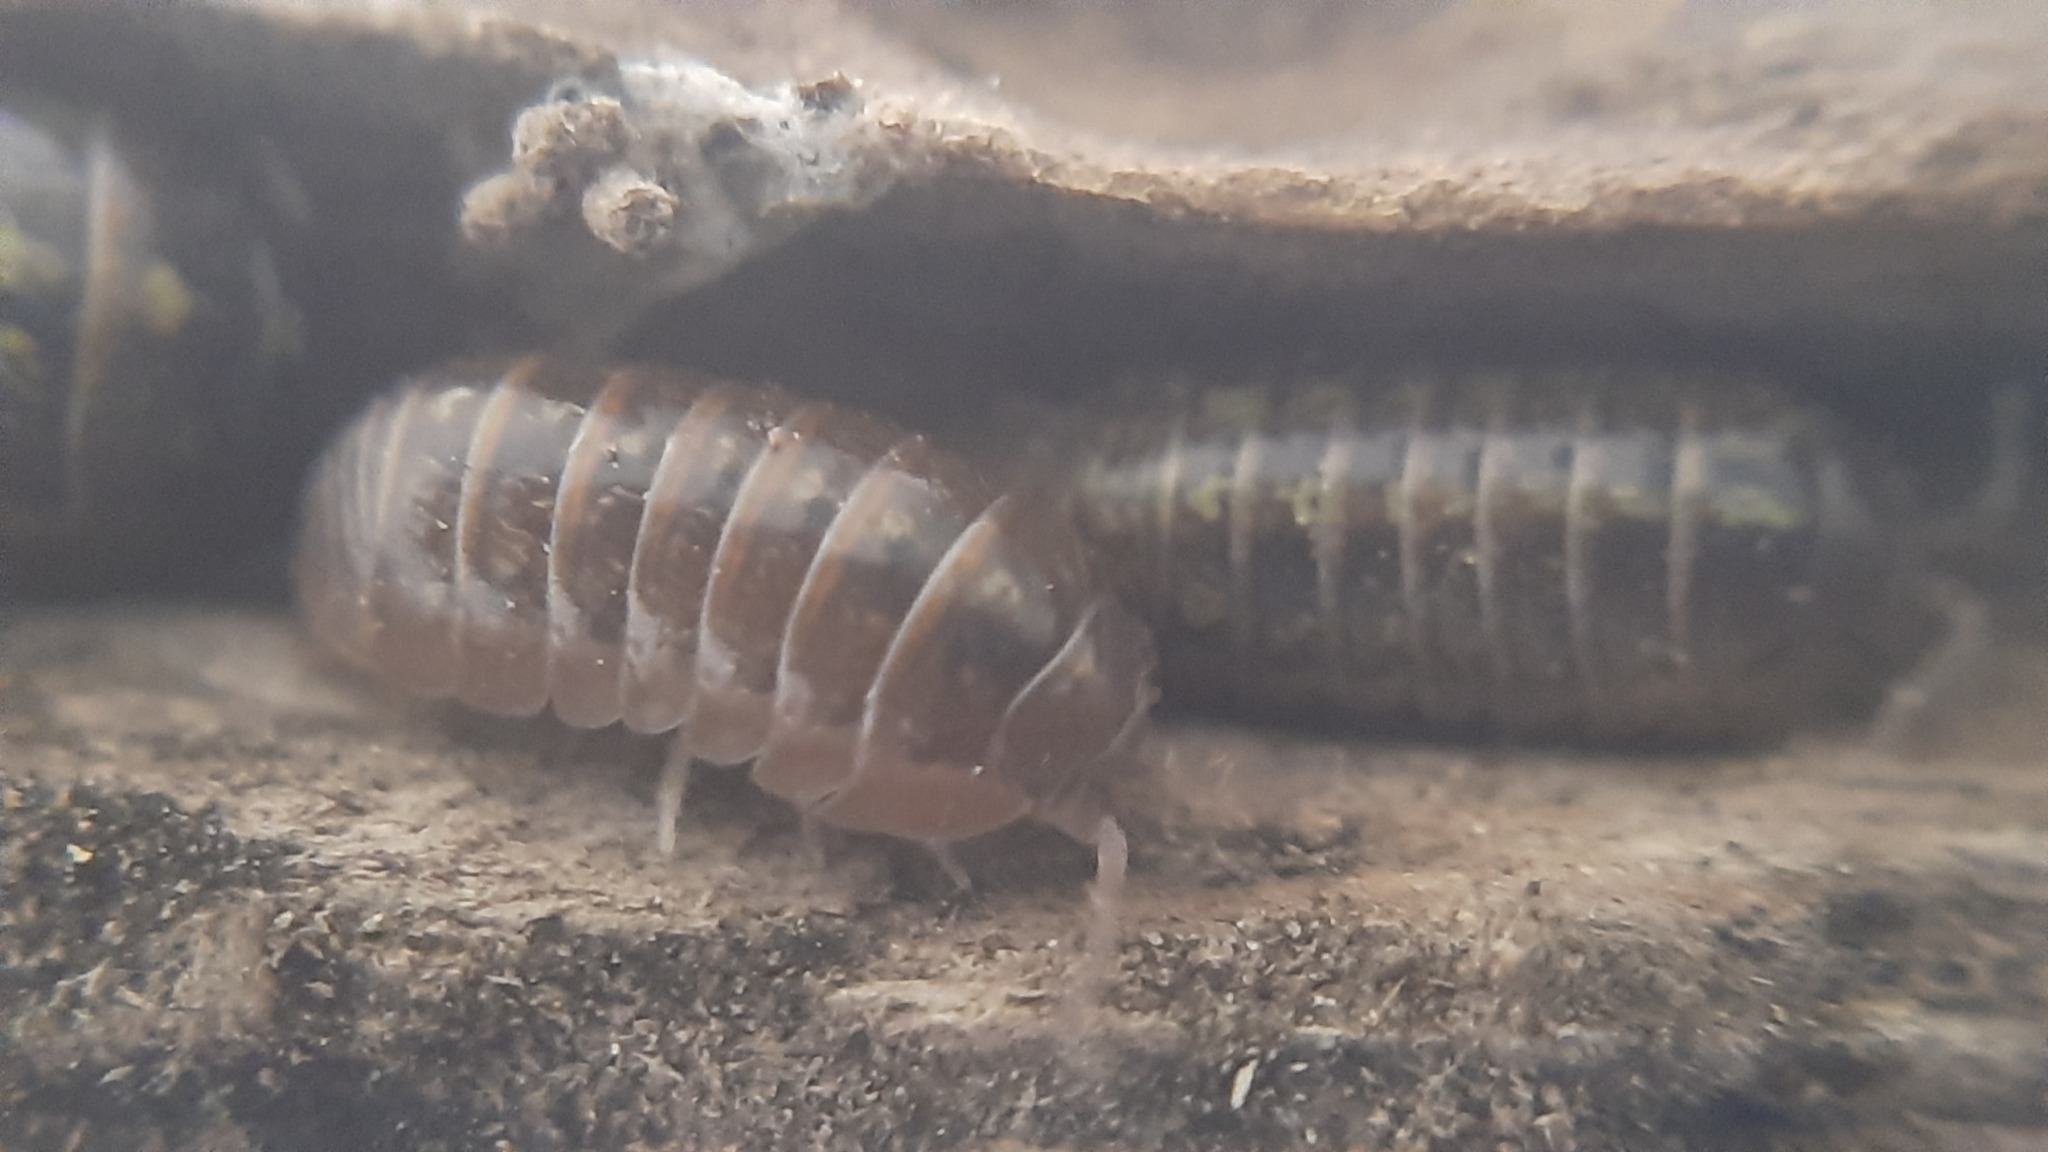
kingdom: Animalia
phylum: Arthropoda
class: Malacostraca
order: Isopoda
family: Armadillidiidae
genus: Armadillidium
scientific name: Armadillidium vulgare
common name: Common pill woodlouse
